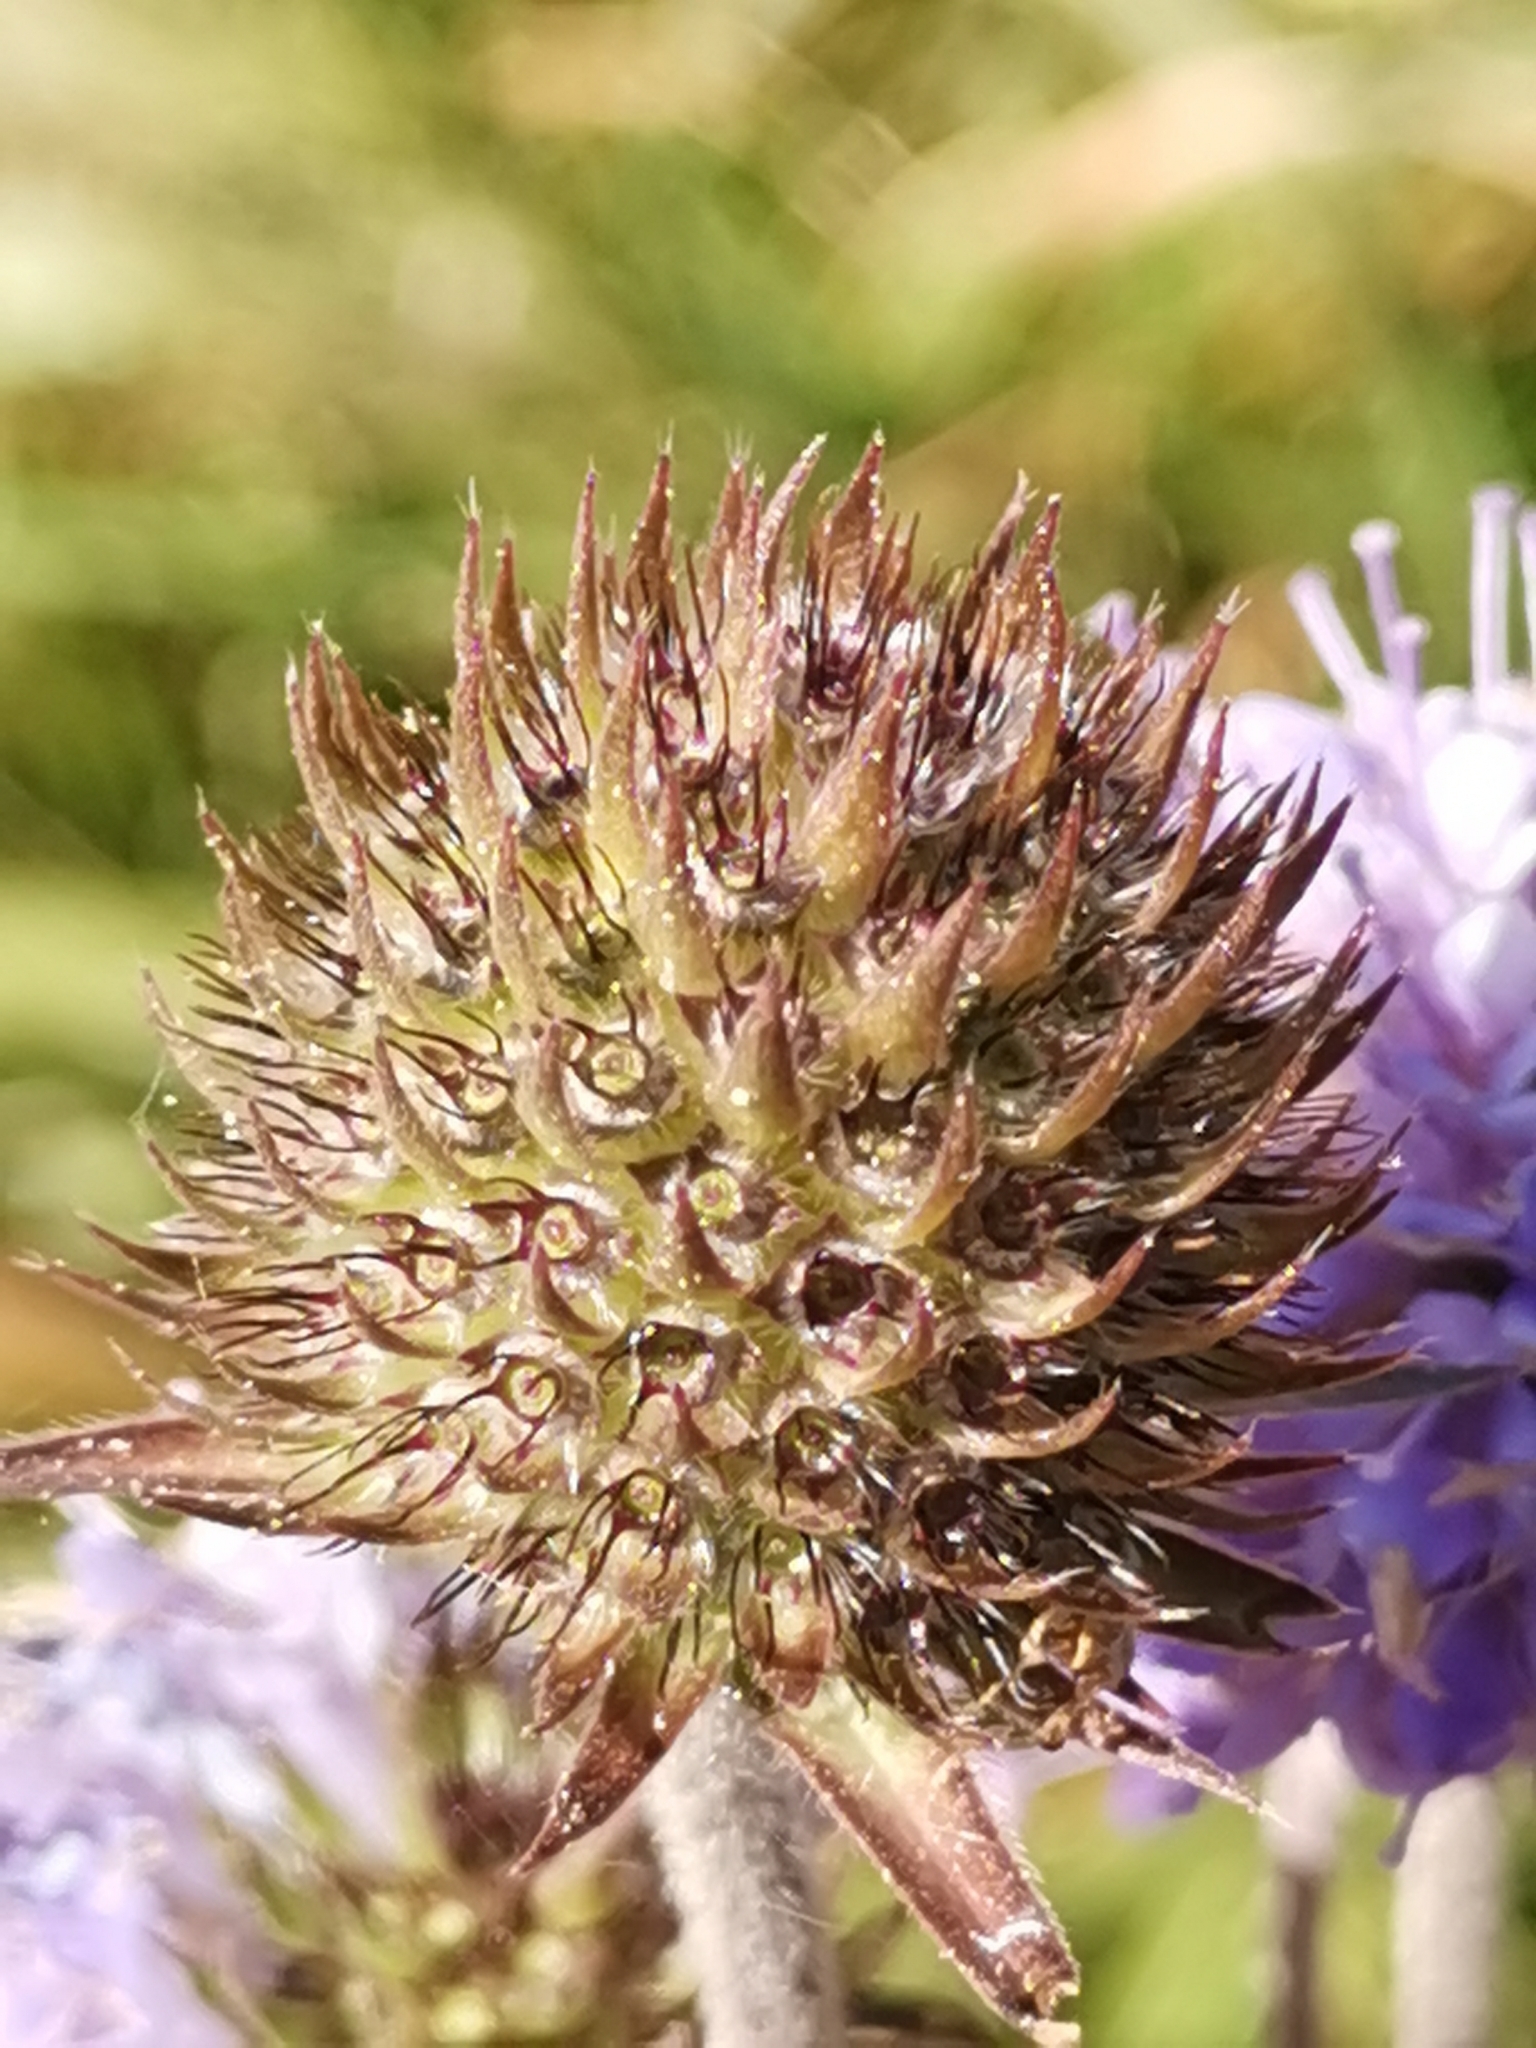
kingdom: Plantae
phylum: Tracheophyta
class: Magnoliopsida
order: Dipsacales
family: Caprifoliaceae
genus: Succisa
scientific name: Succisa pratensis
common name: Devil's-bit
